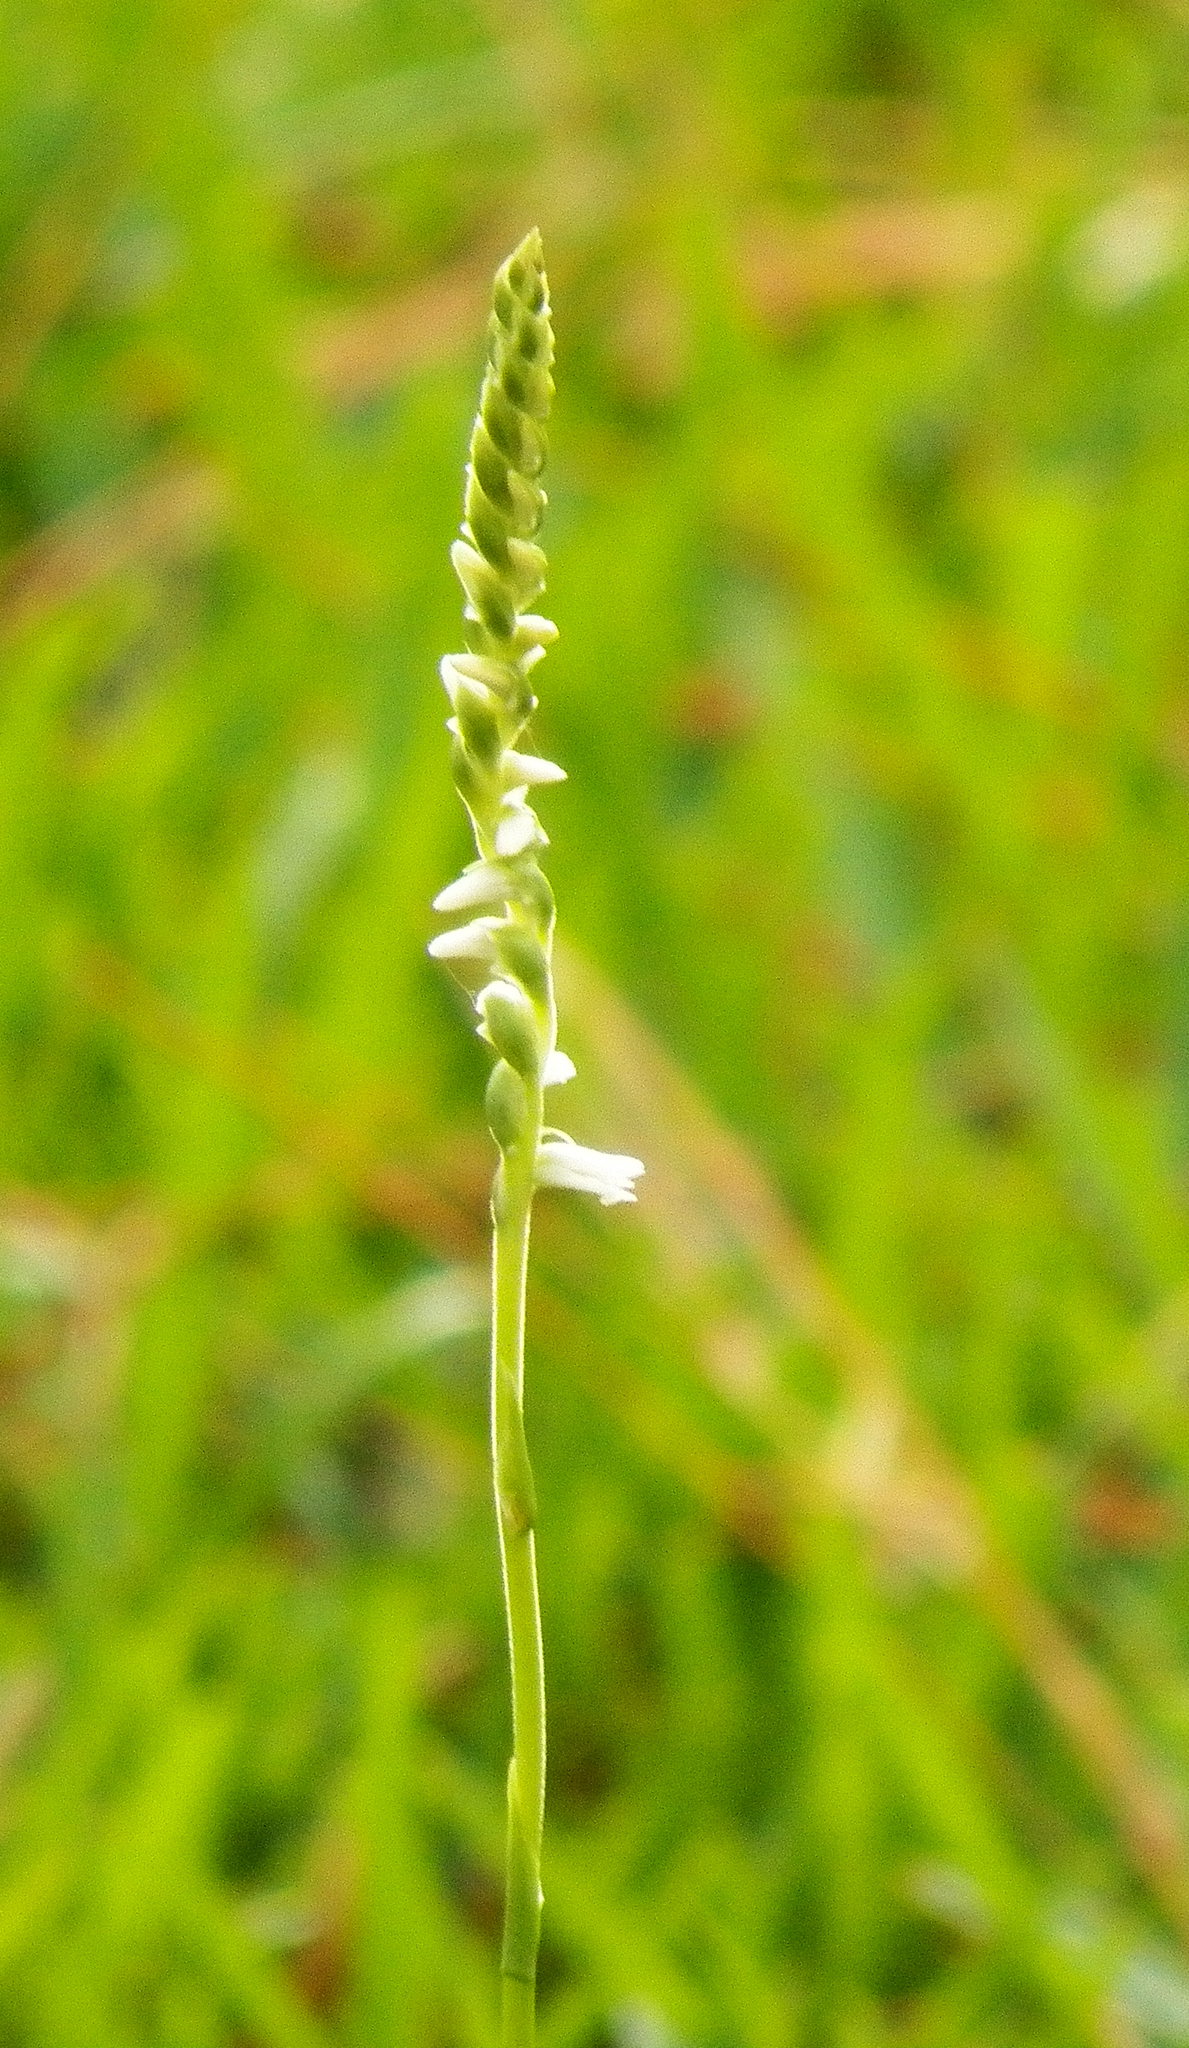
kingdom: Plantae
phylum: Tracheophyta
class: Liliopsida
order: Asparagales
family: Orchidaceae
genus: Spiranthes
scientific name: Spiranthes vernalis
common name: Spring ladies'-tresses
